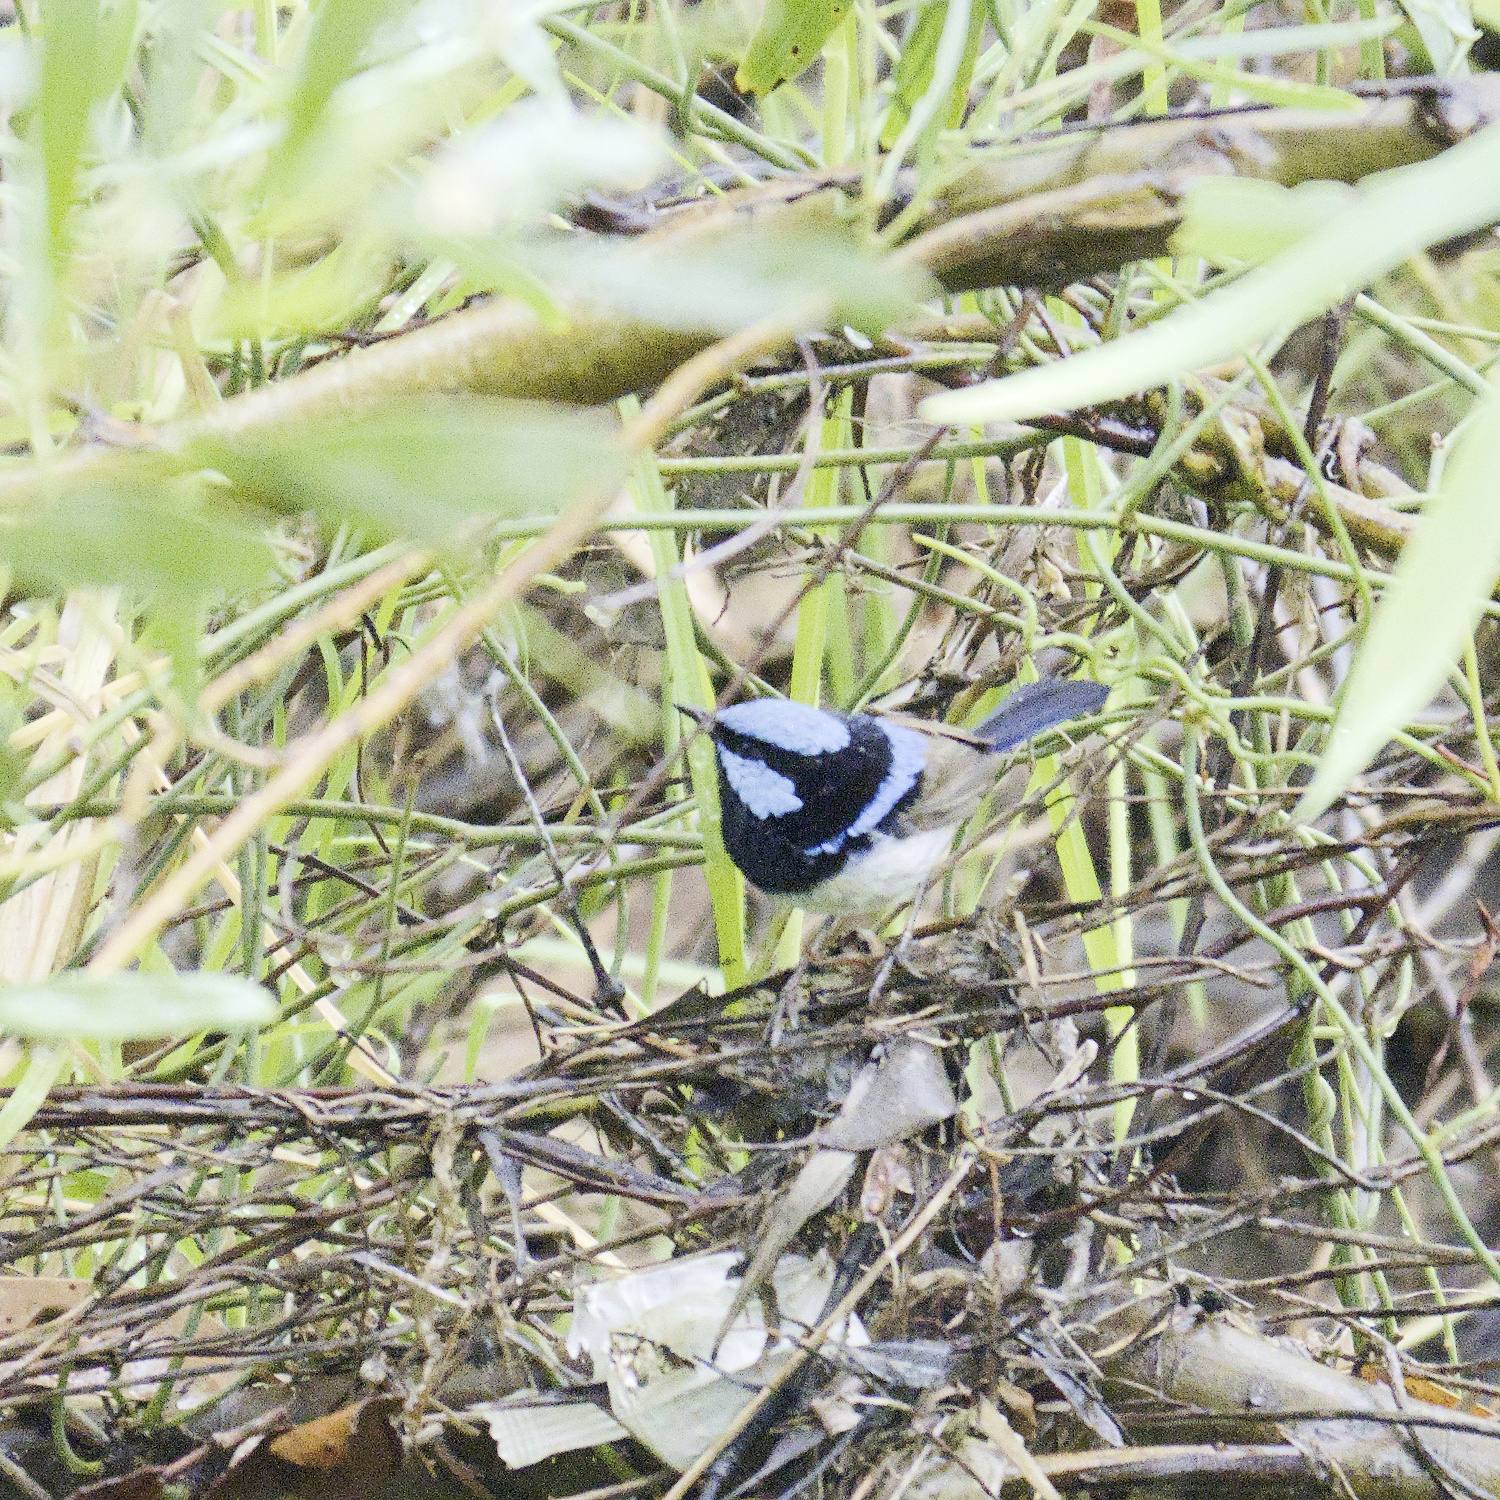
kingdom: Animalia
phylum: Chordata
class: Aves
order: Passeriformes
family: Maluridae
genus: Malurus
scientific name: Malurus cyaneus
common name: Superb fairywren
